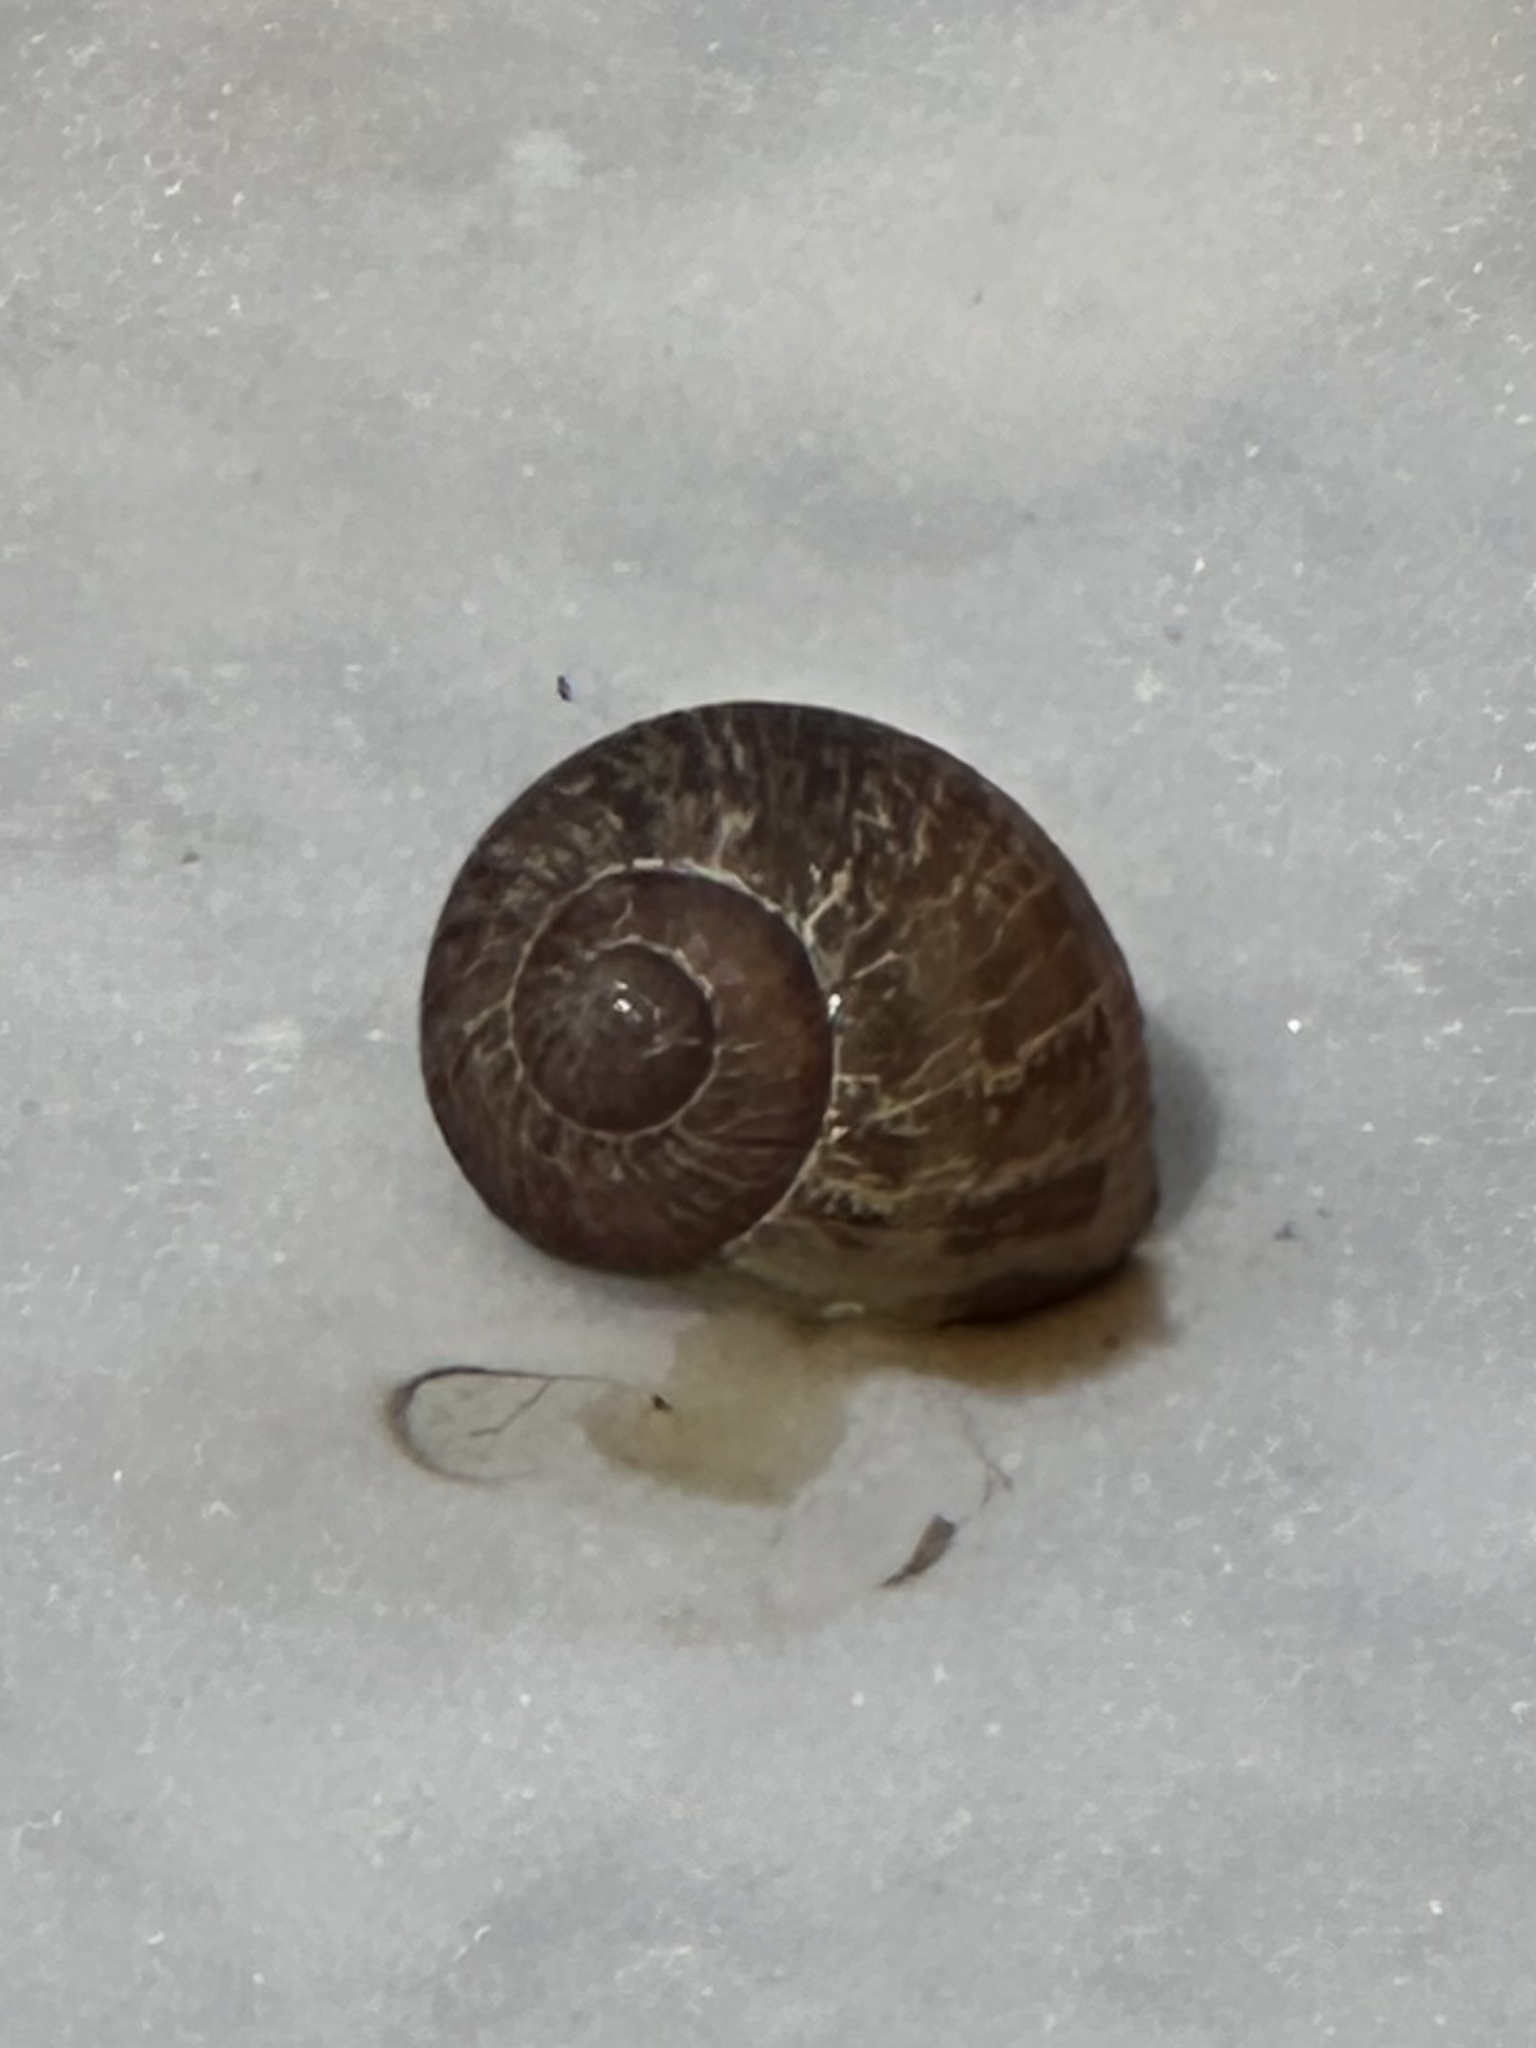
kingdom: Animalia
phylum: Mollusca
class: Gastropoda
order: Stylommatophora
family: Helicidae
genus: Cornu
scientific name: Cornu aspersum
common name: Brown garden snail
